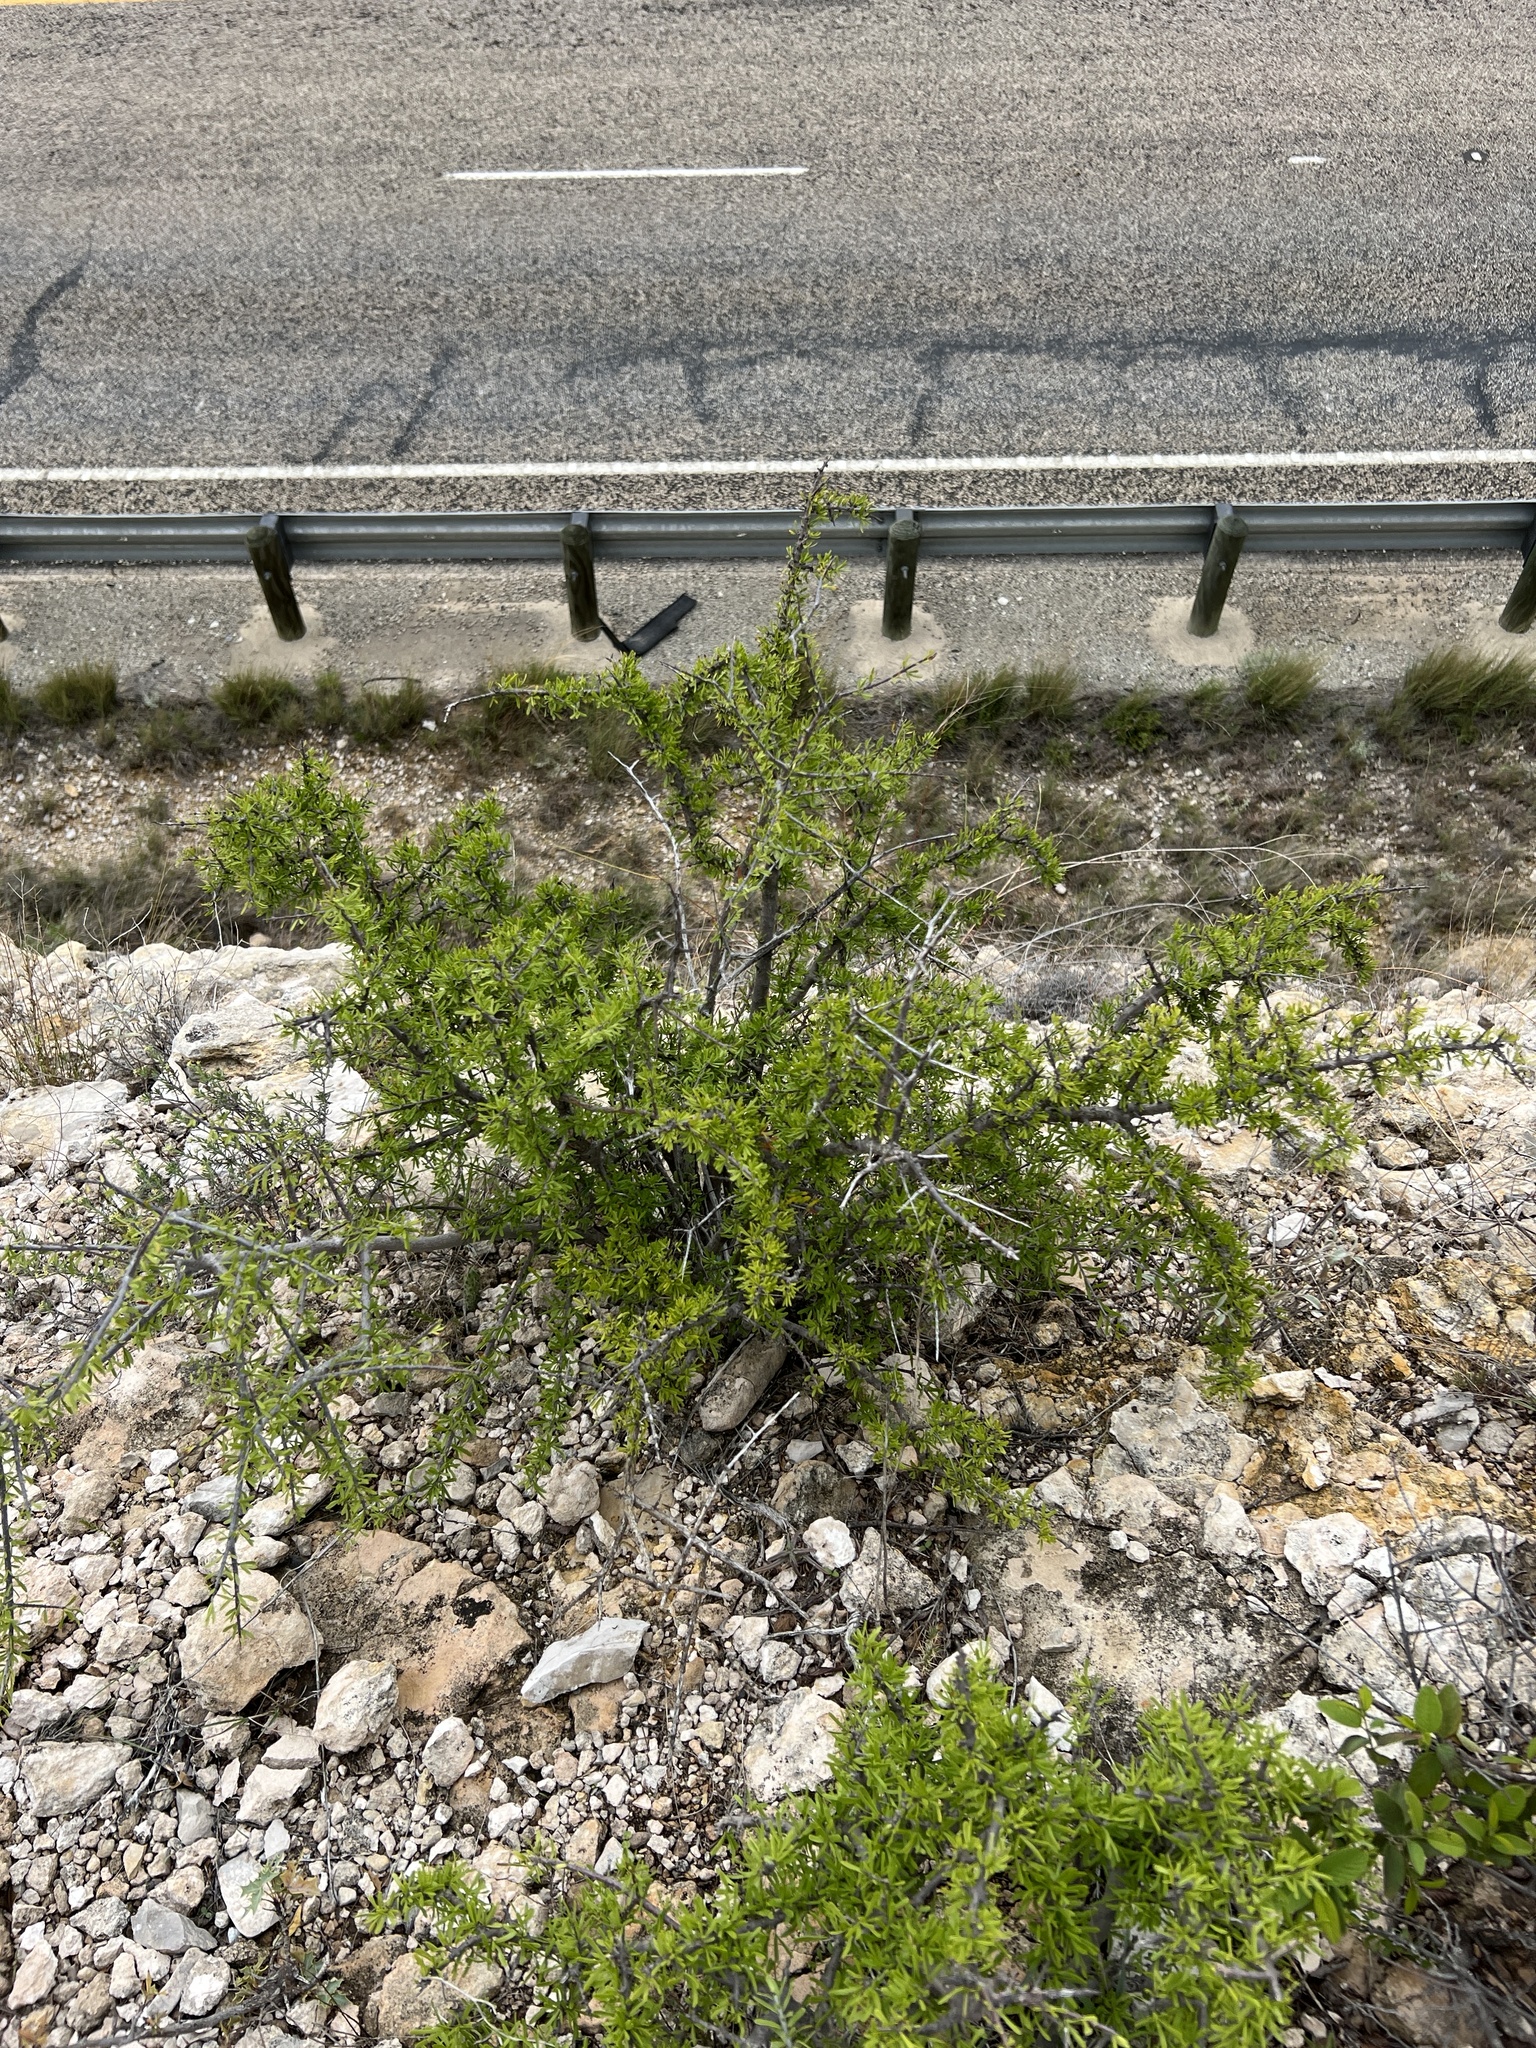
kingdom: Plantae
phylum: Tracheophyta
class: Magnoliopsida
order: Lamiales
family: Oleaceae
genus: Forestiera
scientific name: Forestiera angustifolia
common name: Elbowbush
